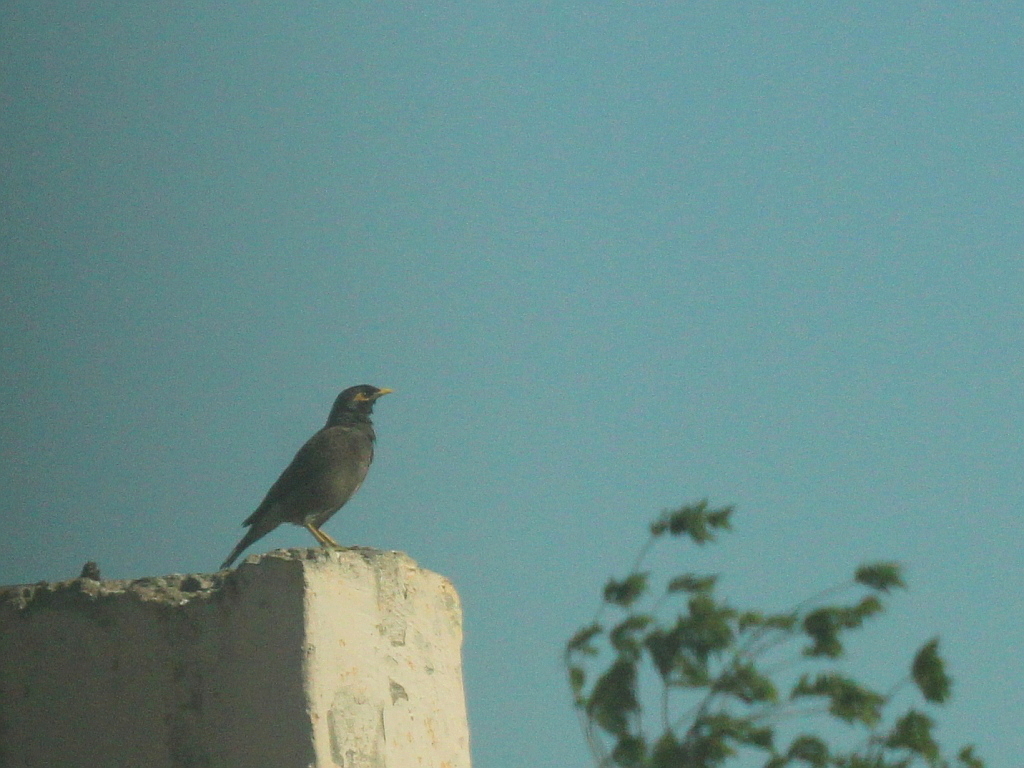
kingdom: Animalia
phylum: Chordata
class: Aves
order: Passeriformes
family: Sturnidae
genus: Acridotheres
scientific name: Acridotheres tristis
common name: Common myna
